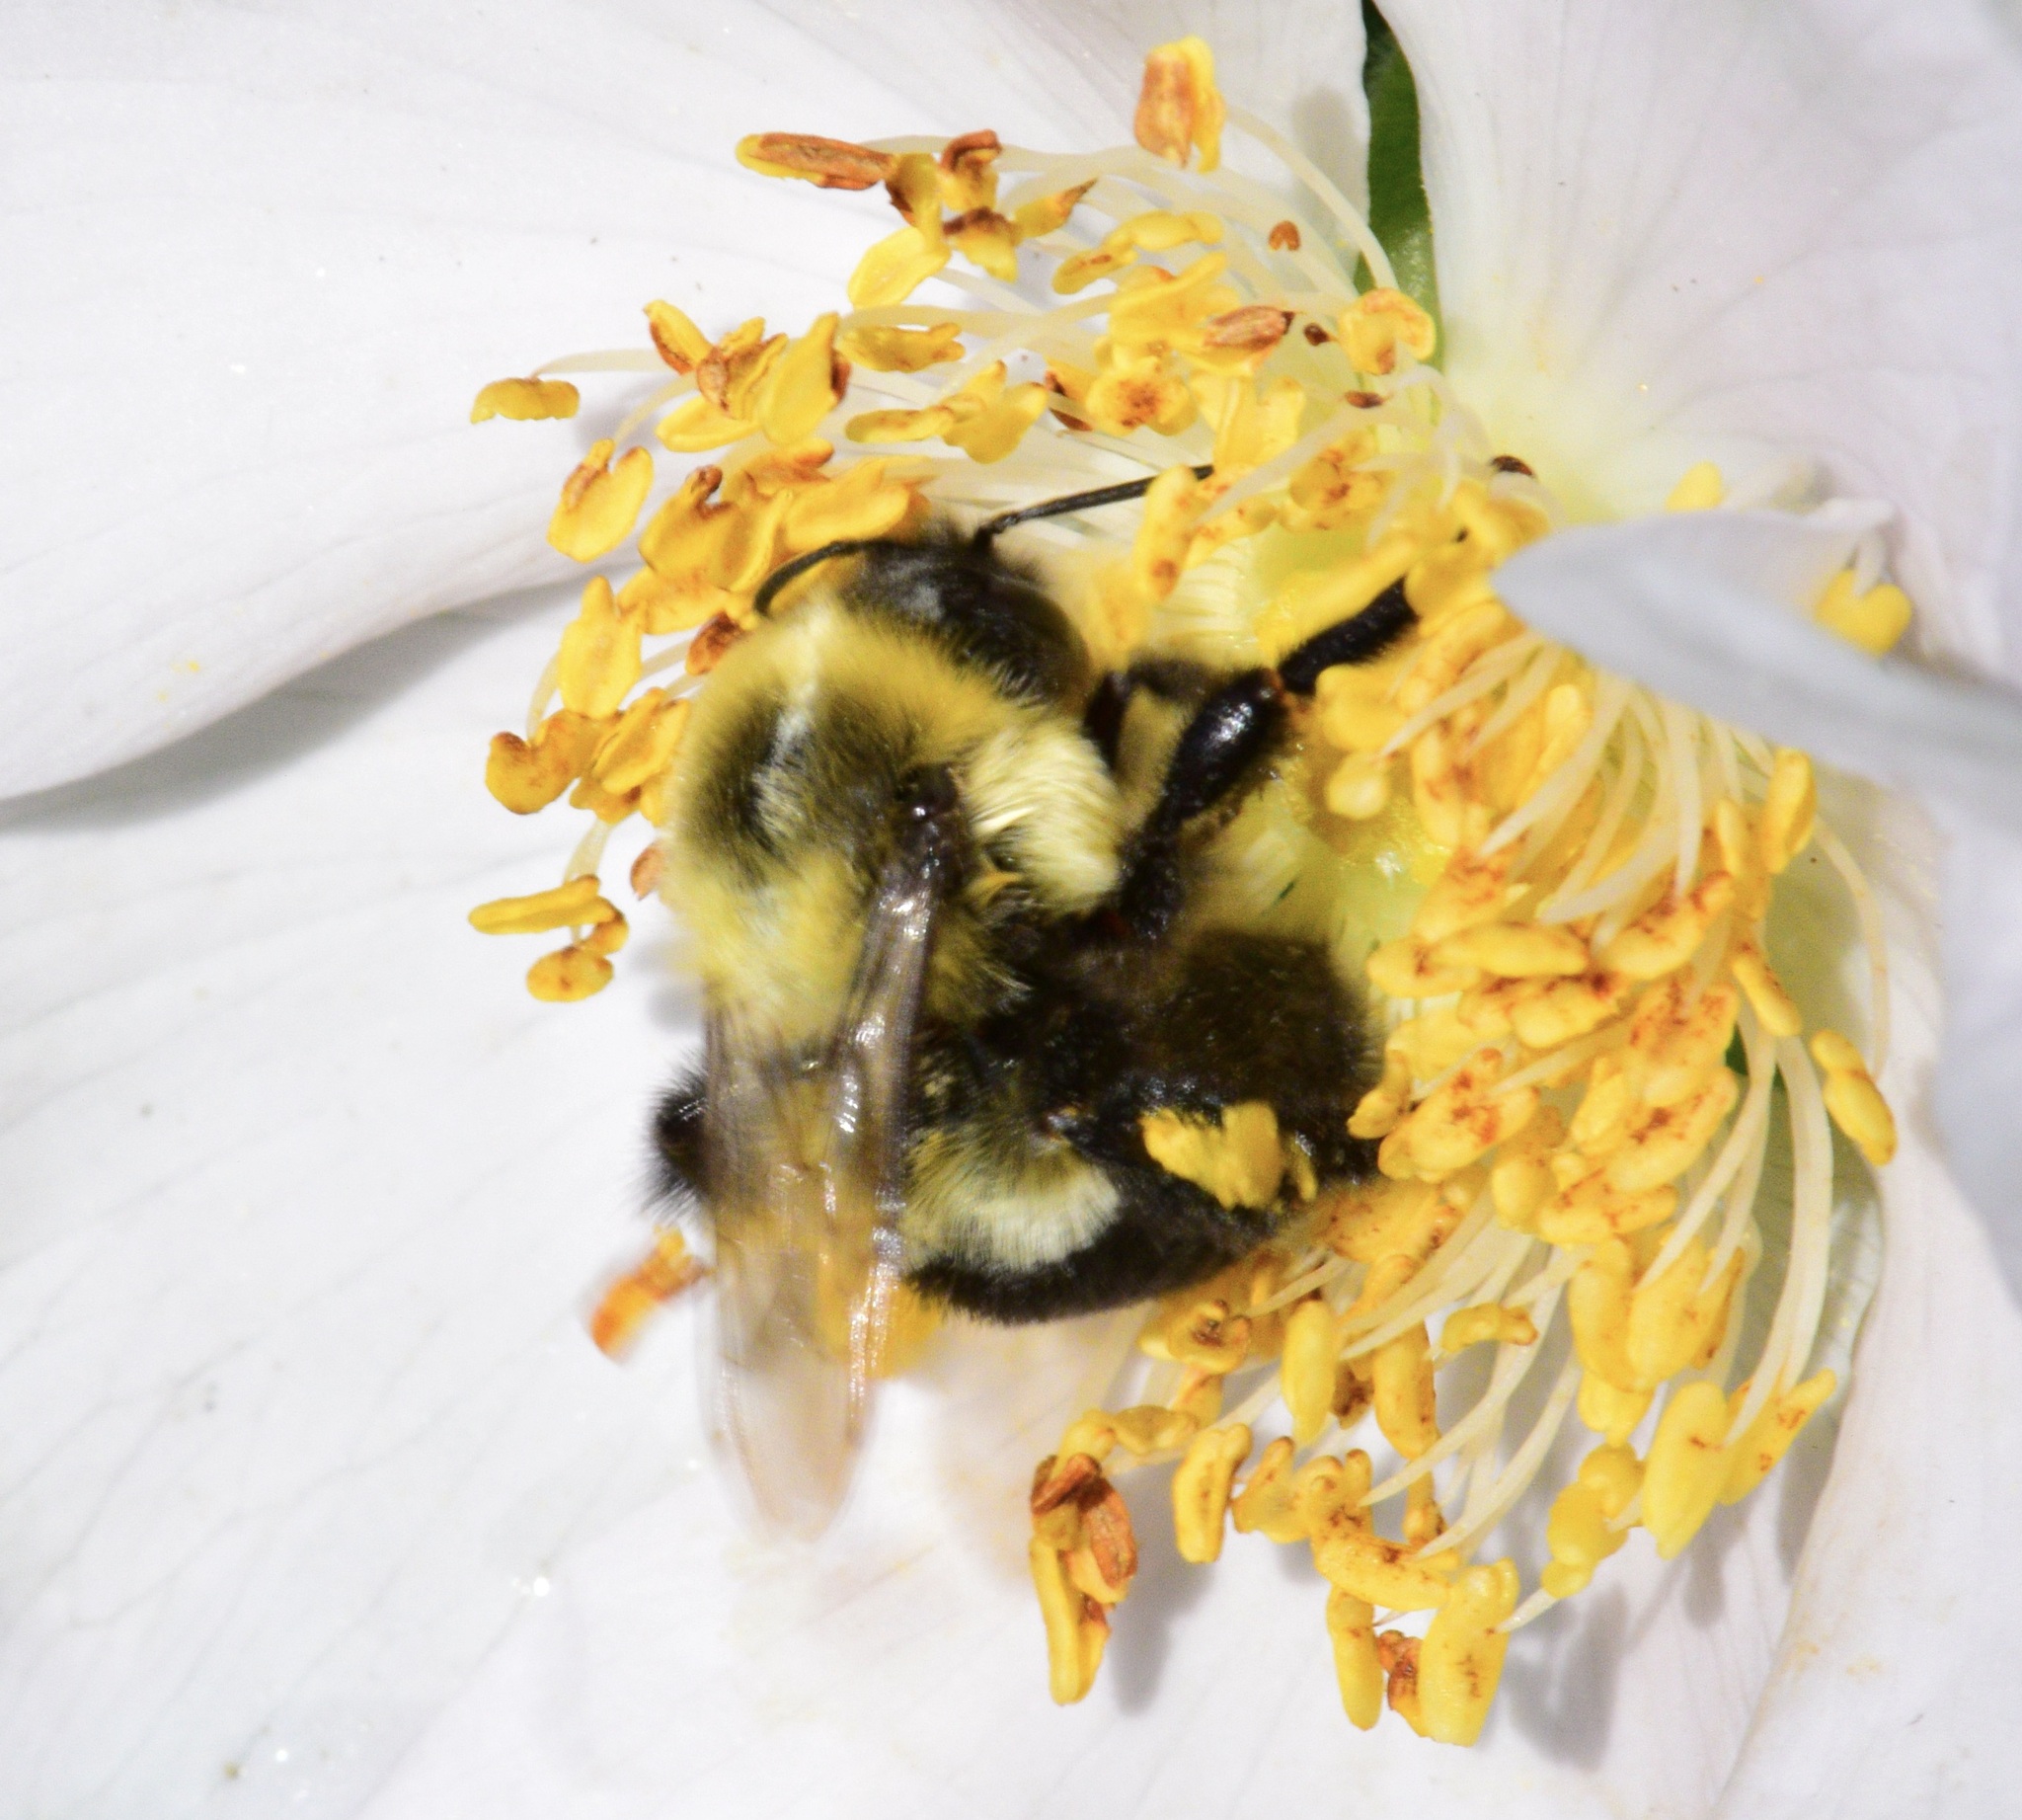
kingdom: Animalia
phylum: Arthropoda
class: Insecta
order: Hymenoptera
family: Apidae
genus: Bombus
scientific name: Bombus impatiens
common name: Common eastern bumble bee
